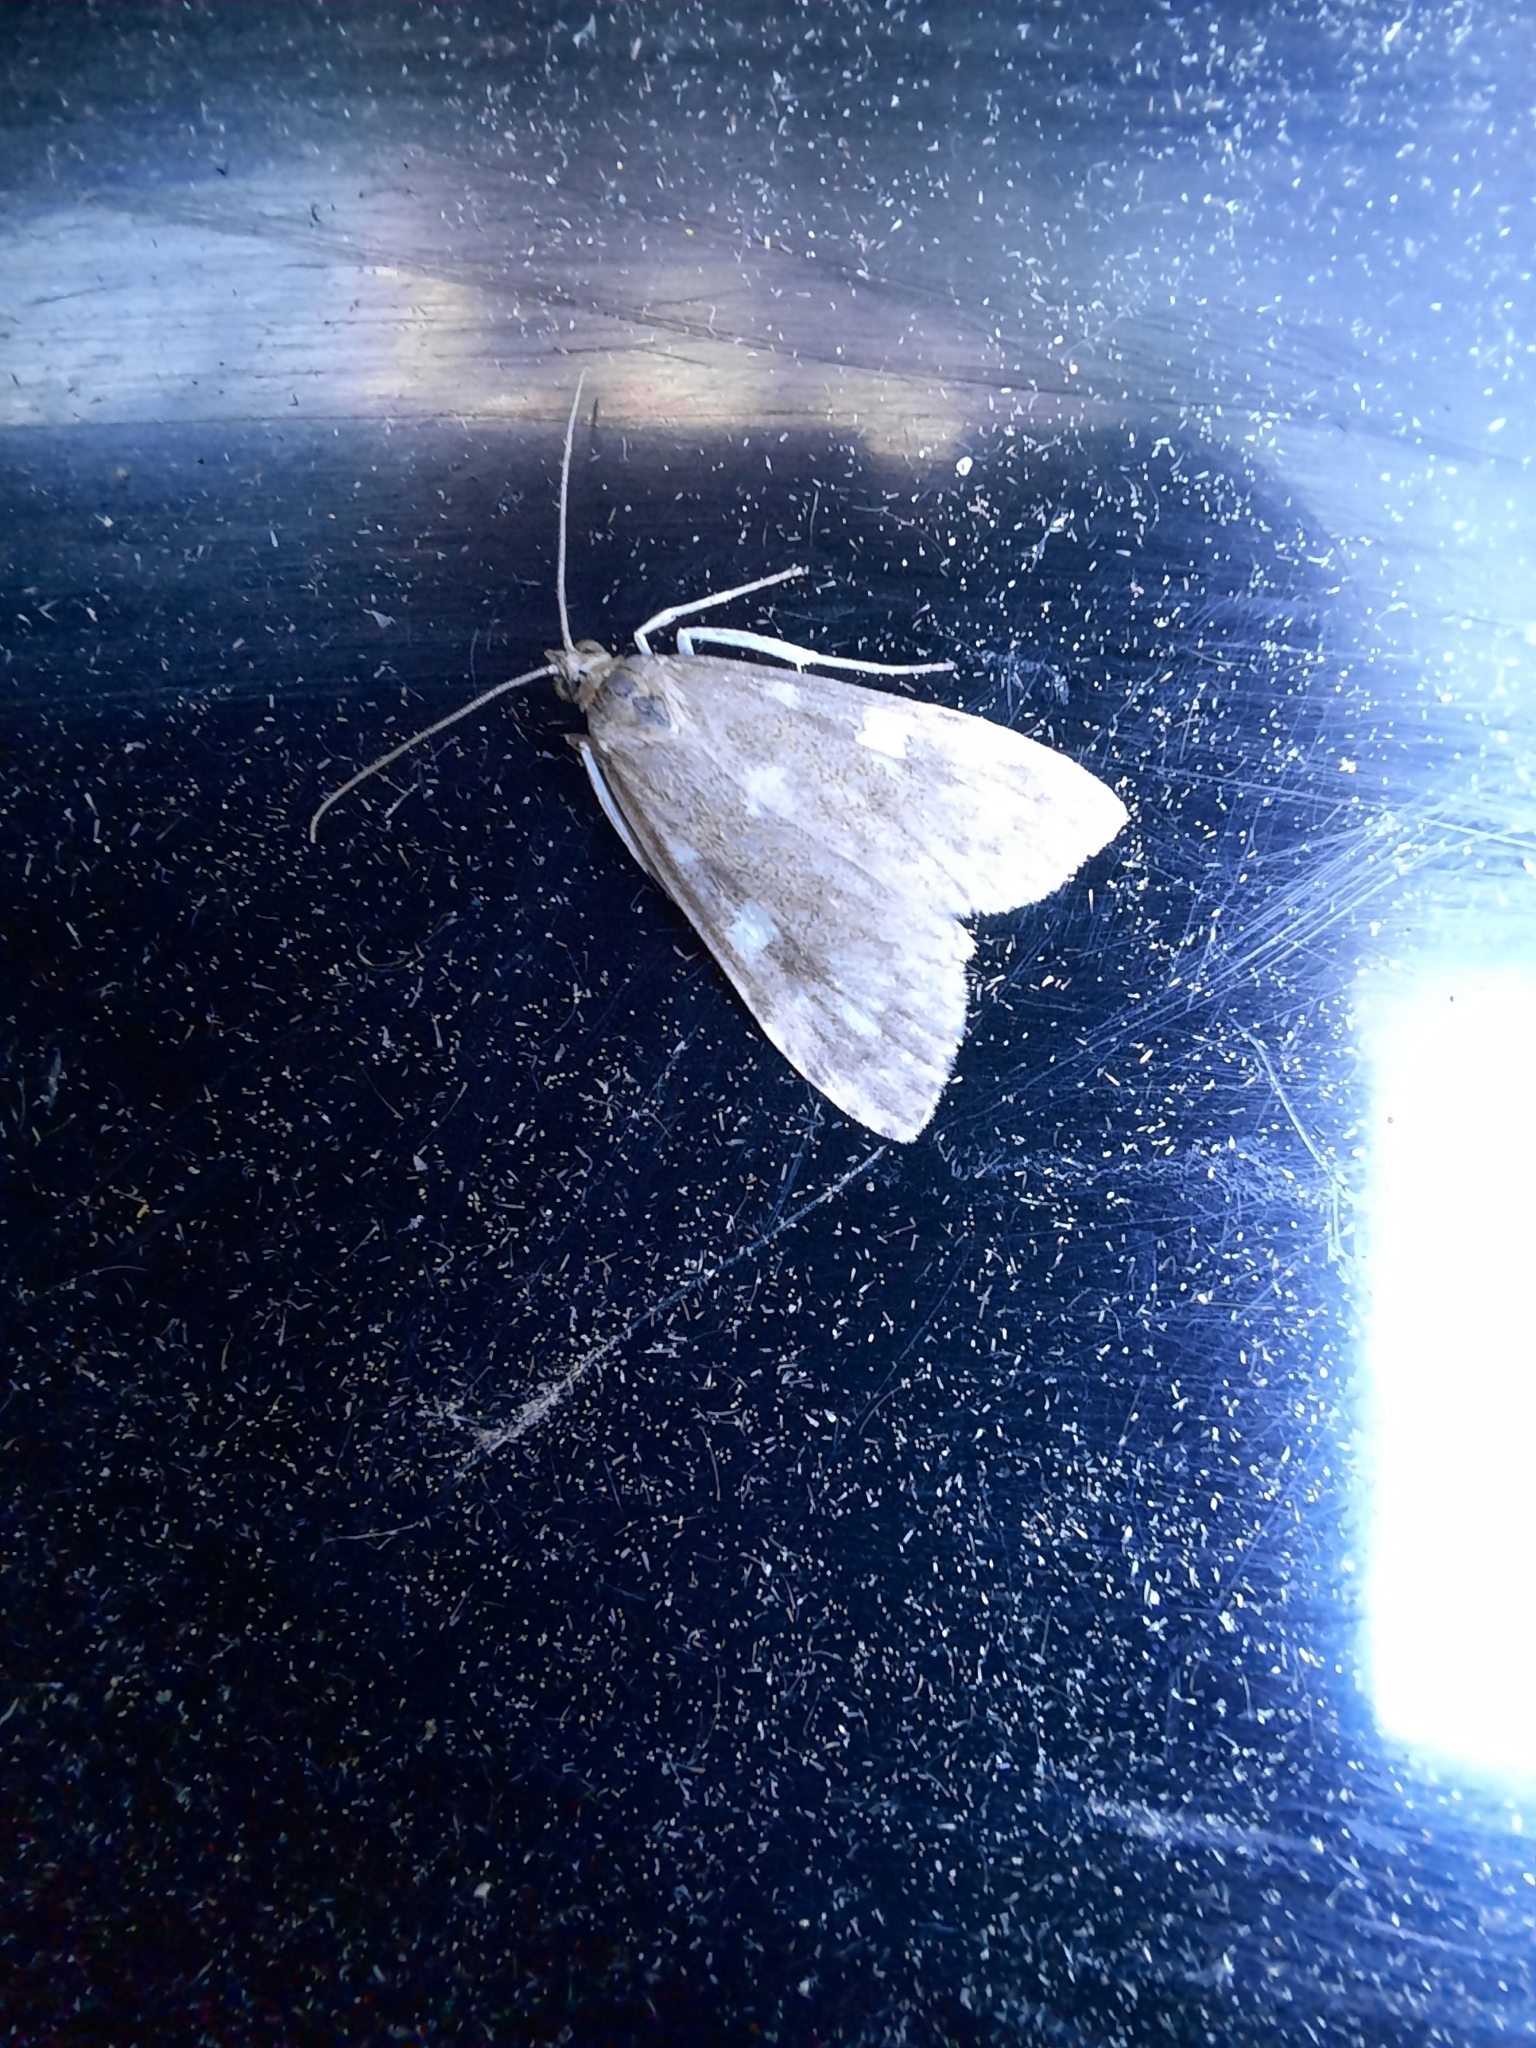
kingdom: Animalia
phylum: Arthropoda
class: Insecta
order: Lepidoptera
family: Crambidae
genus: Udea
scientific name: Udea olivalis
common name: Olive pearl
